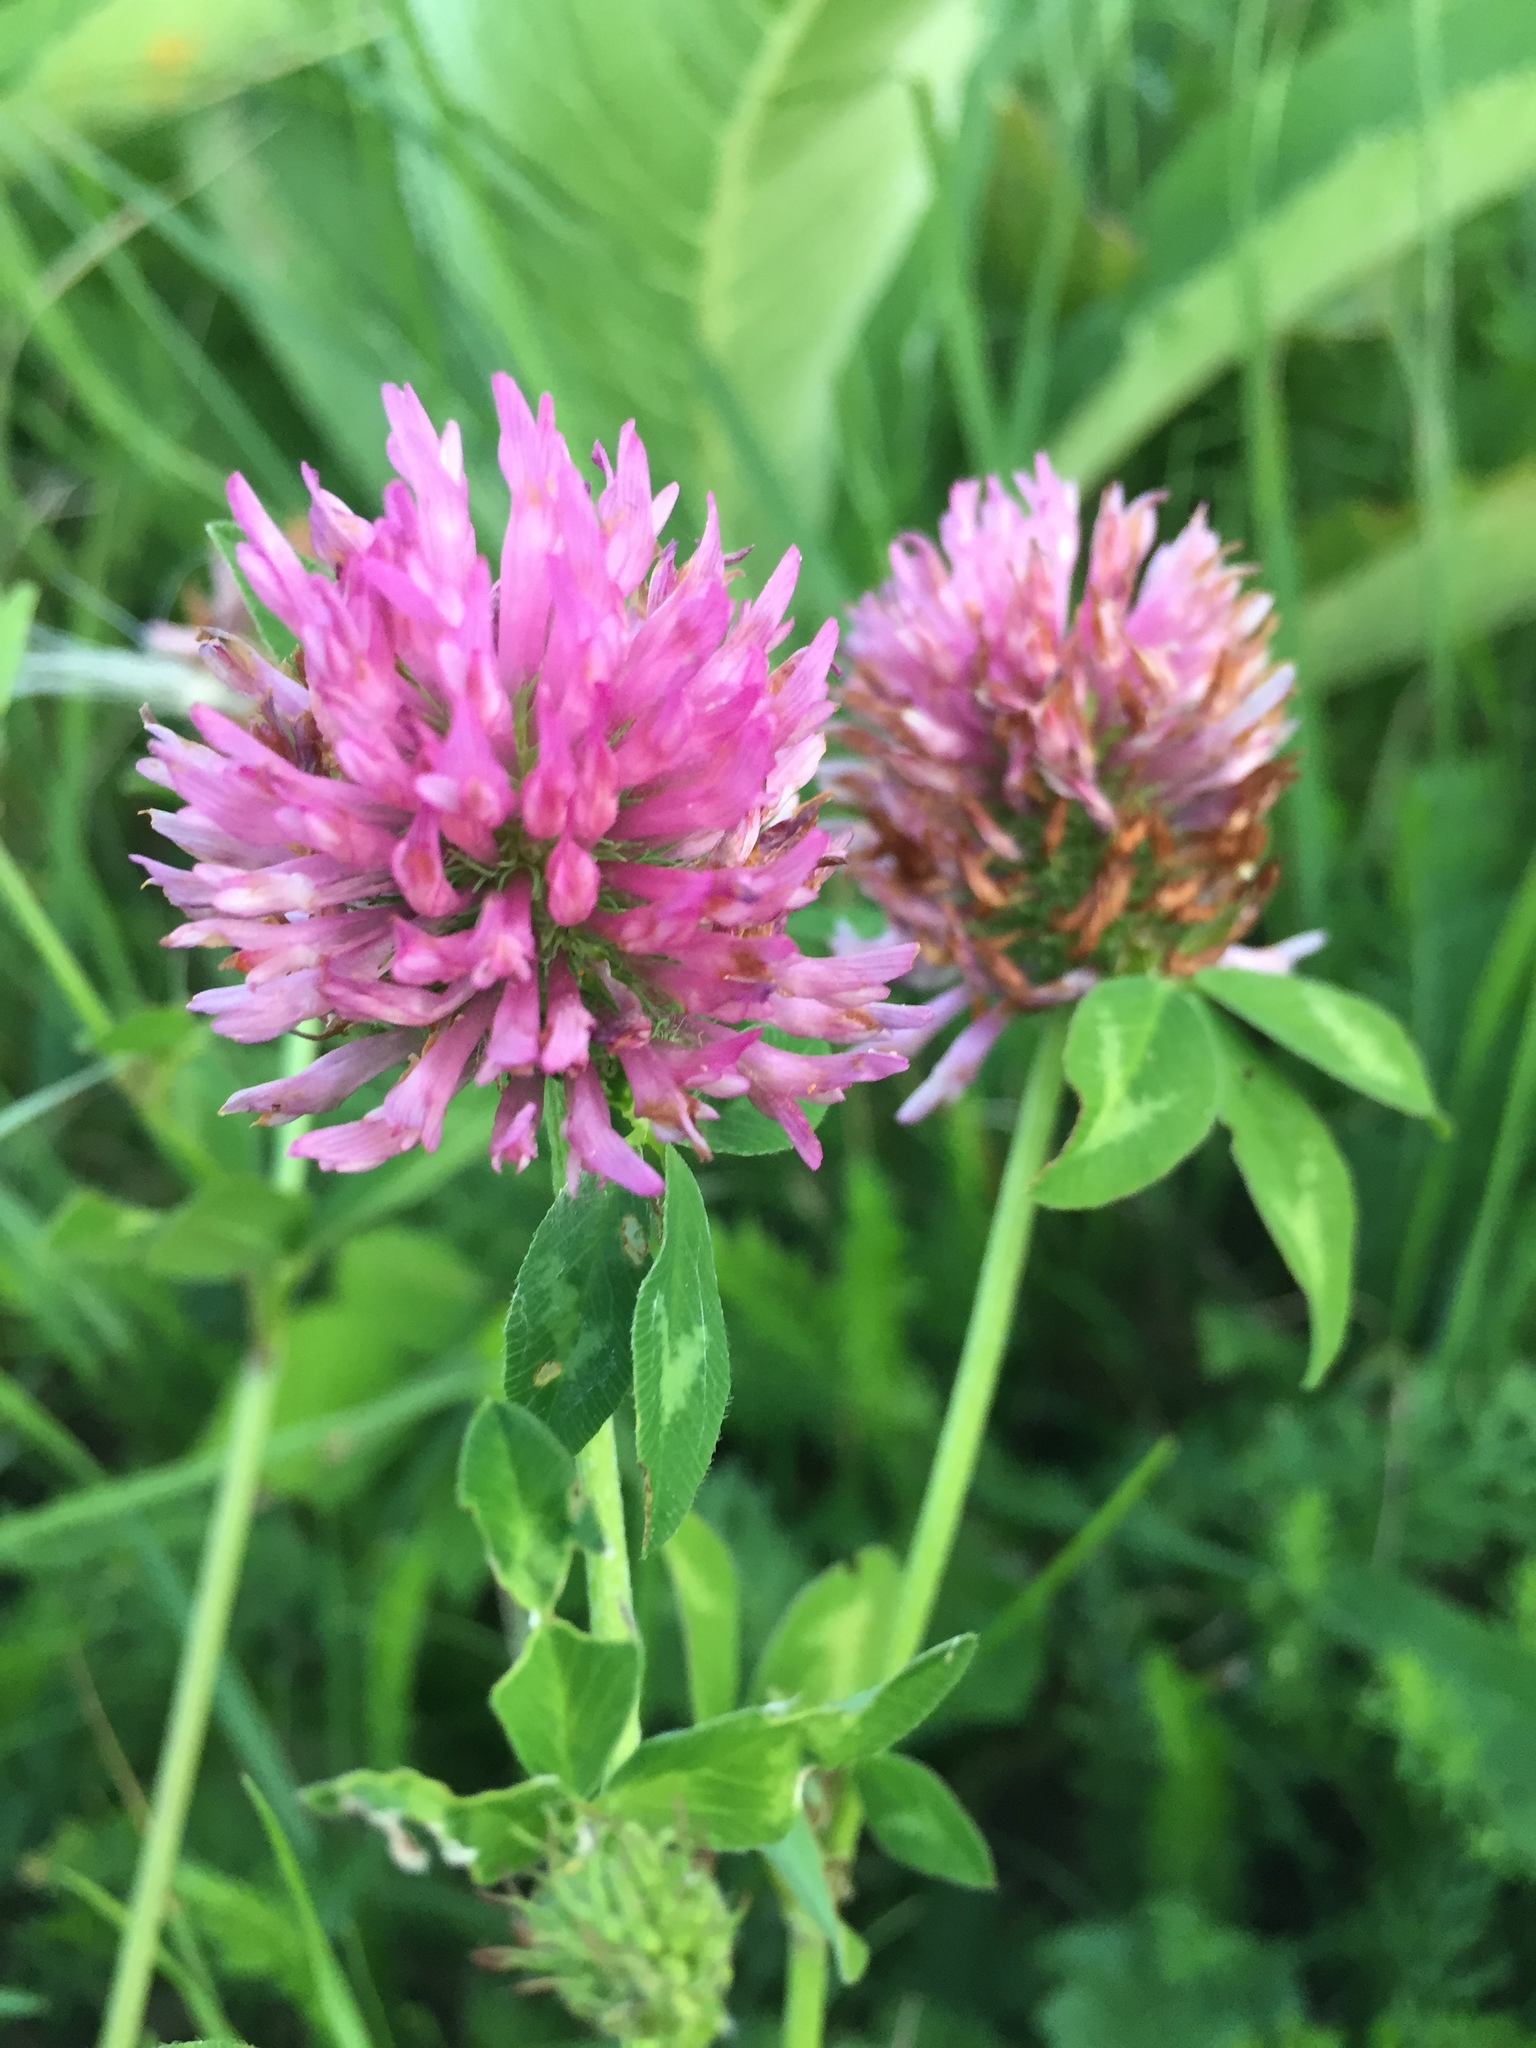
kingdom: Plantae
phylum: Tracheophyta
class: Magnoliopsida
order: Fabales
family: Fabaceae
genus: Trifolium
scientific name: Trifolium pratense
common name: Red clover
